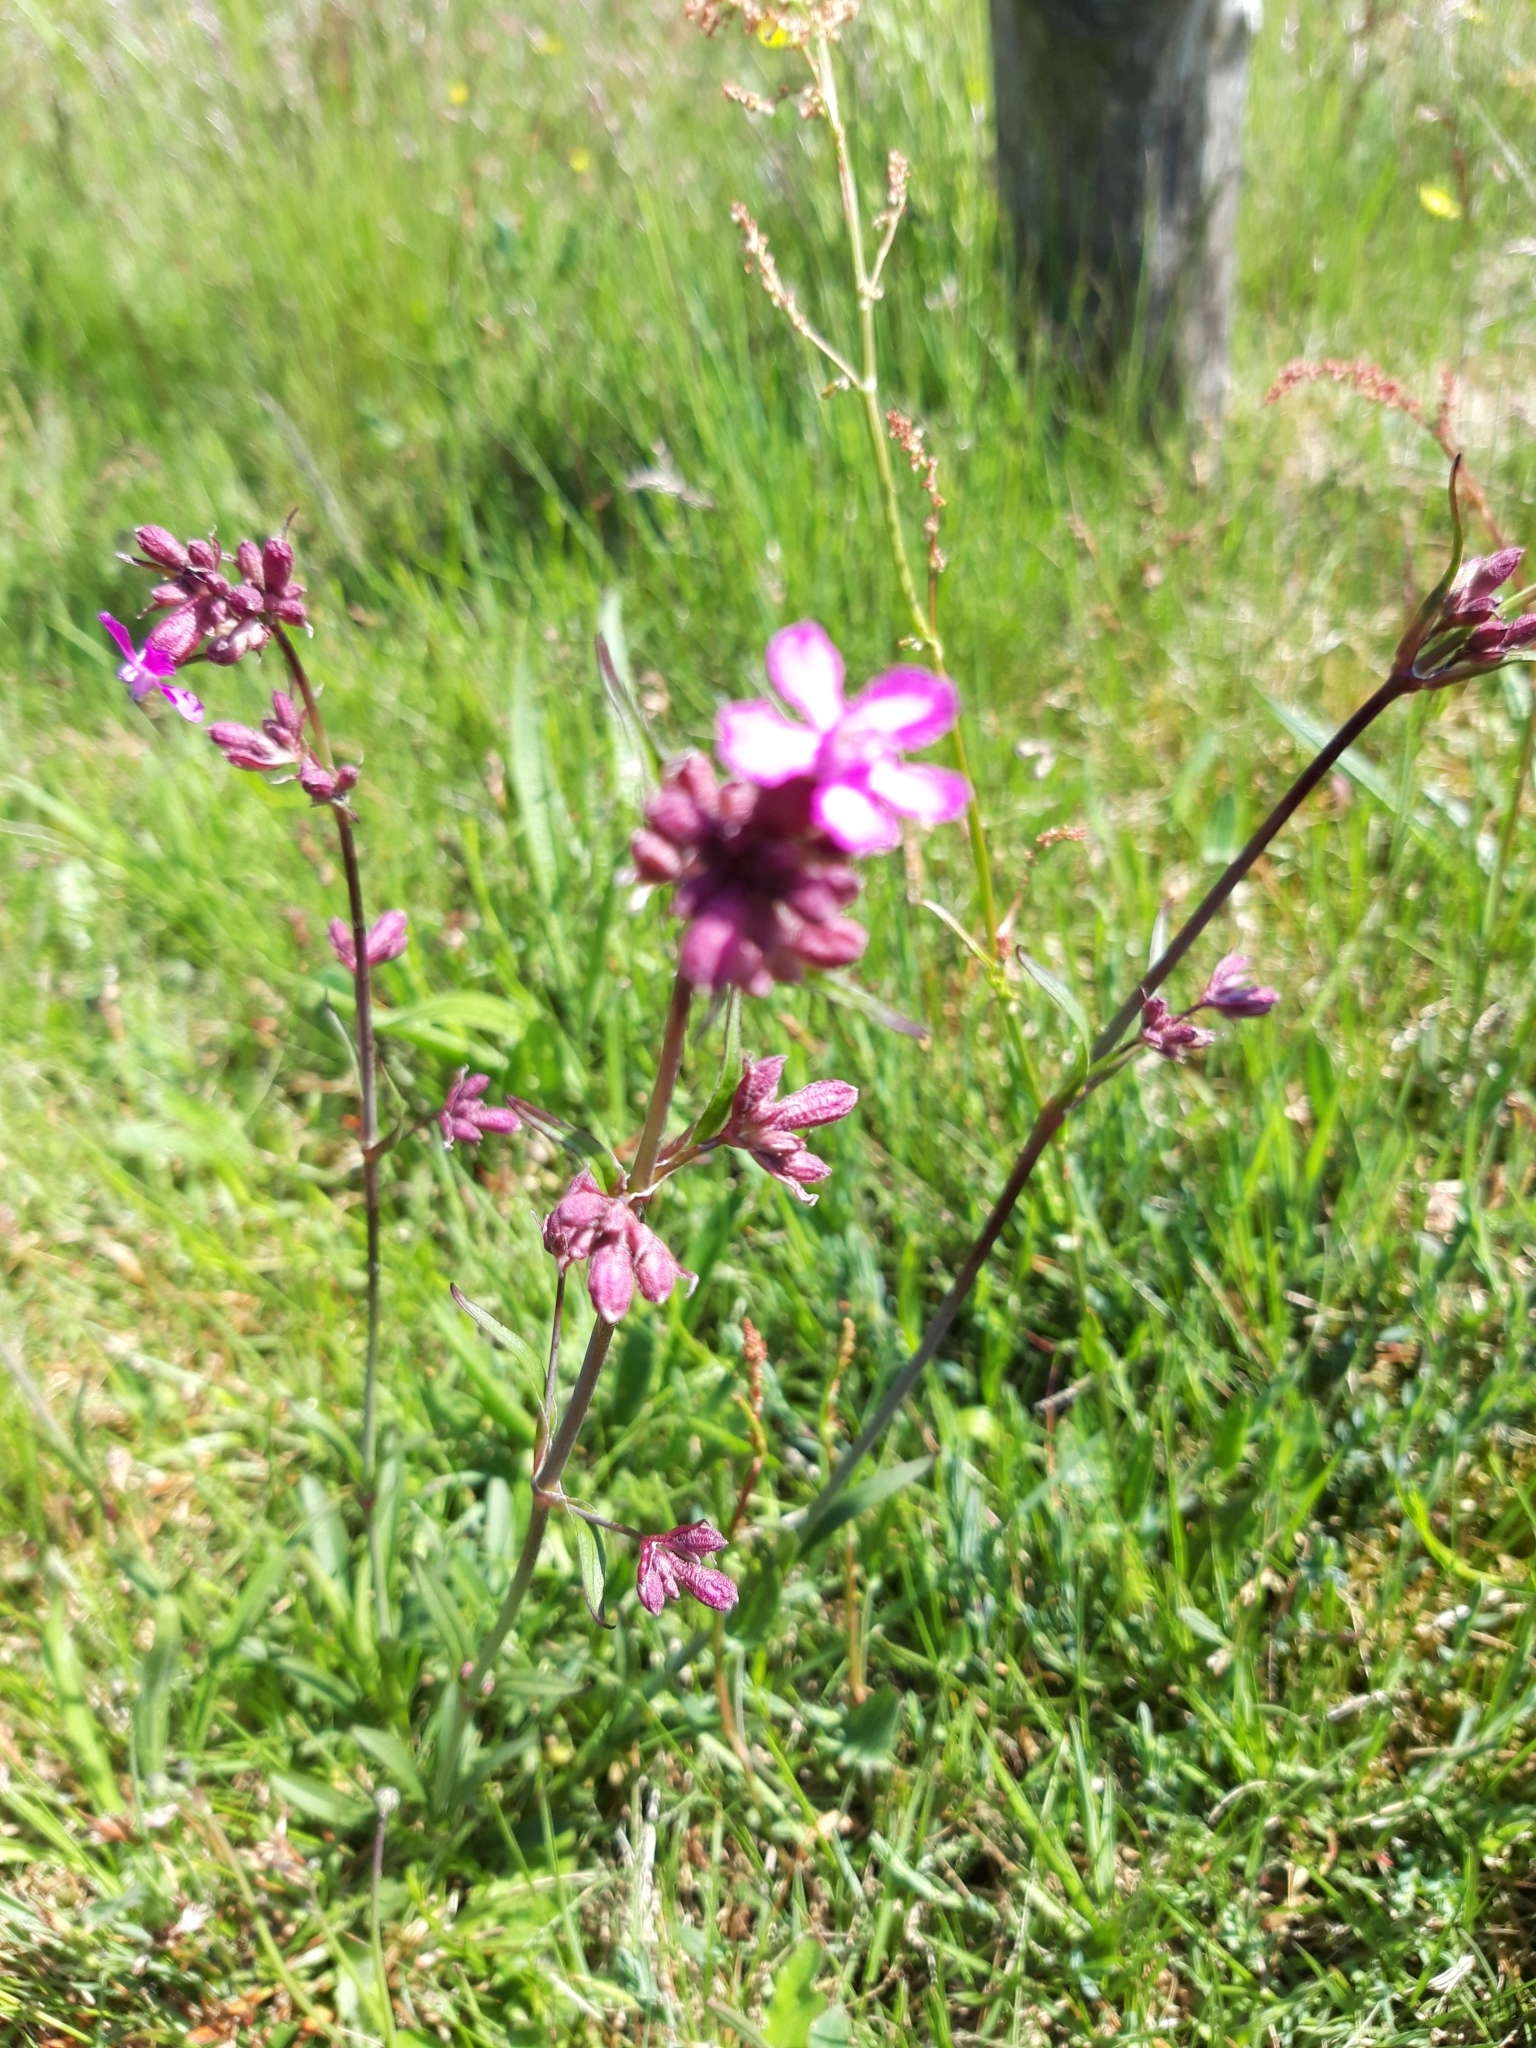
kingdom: Plantae
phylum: Tracheophyta
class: Magnoliopsida
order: Caryophyllales
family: Caryophyllaceae
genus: Viscaria
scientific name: Viscaria vulgaris
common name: Clammy campion
